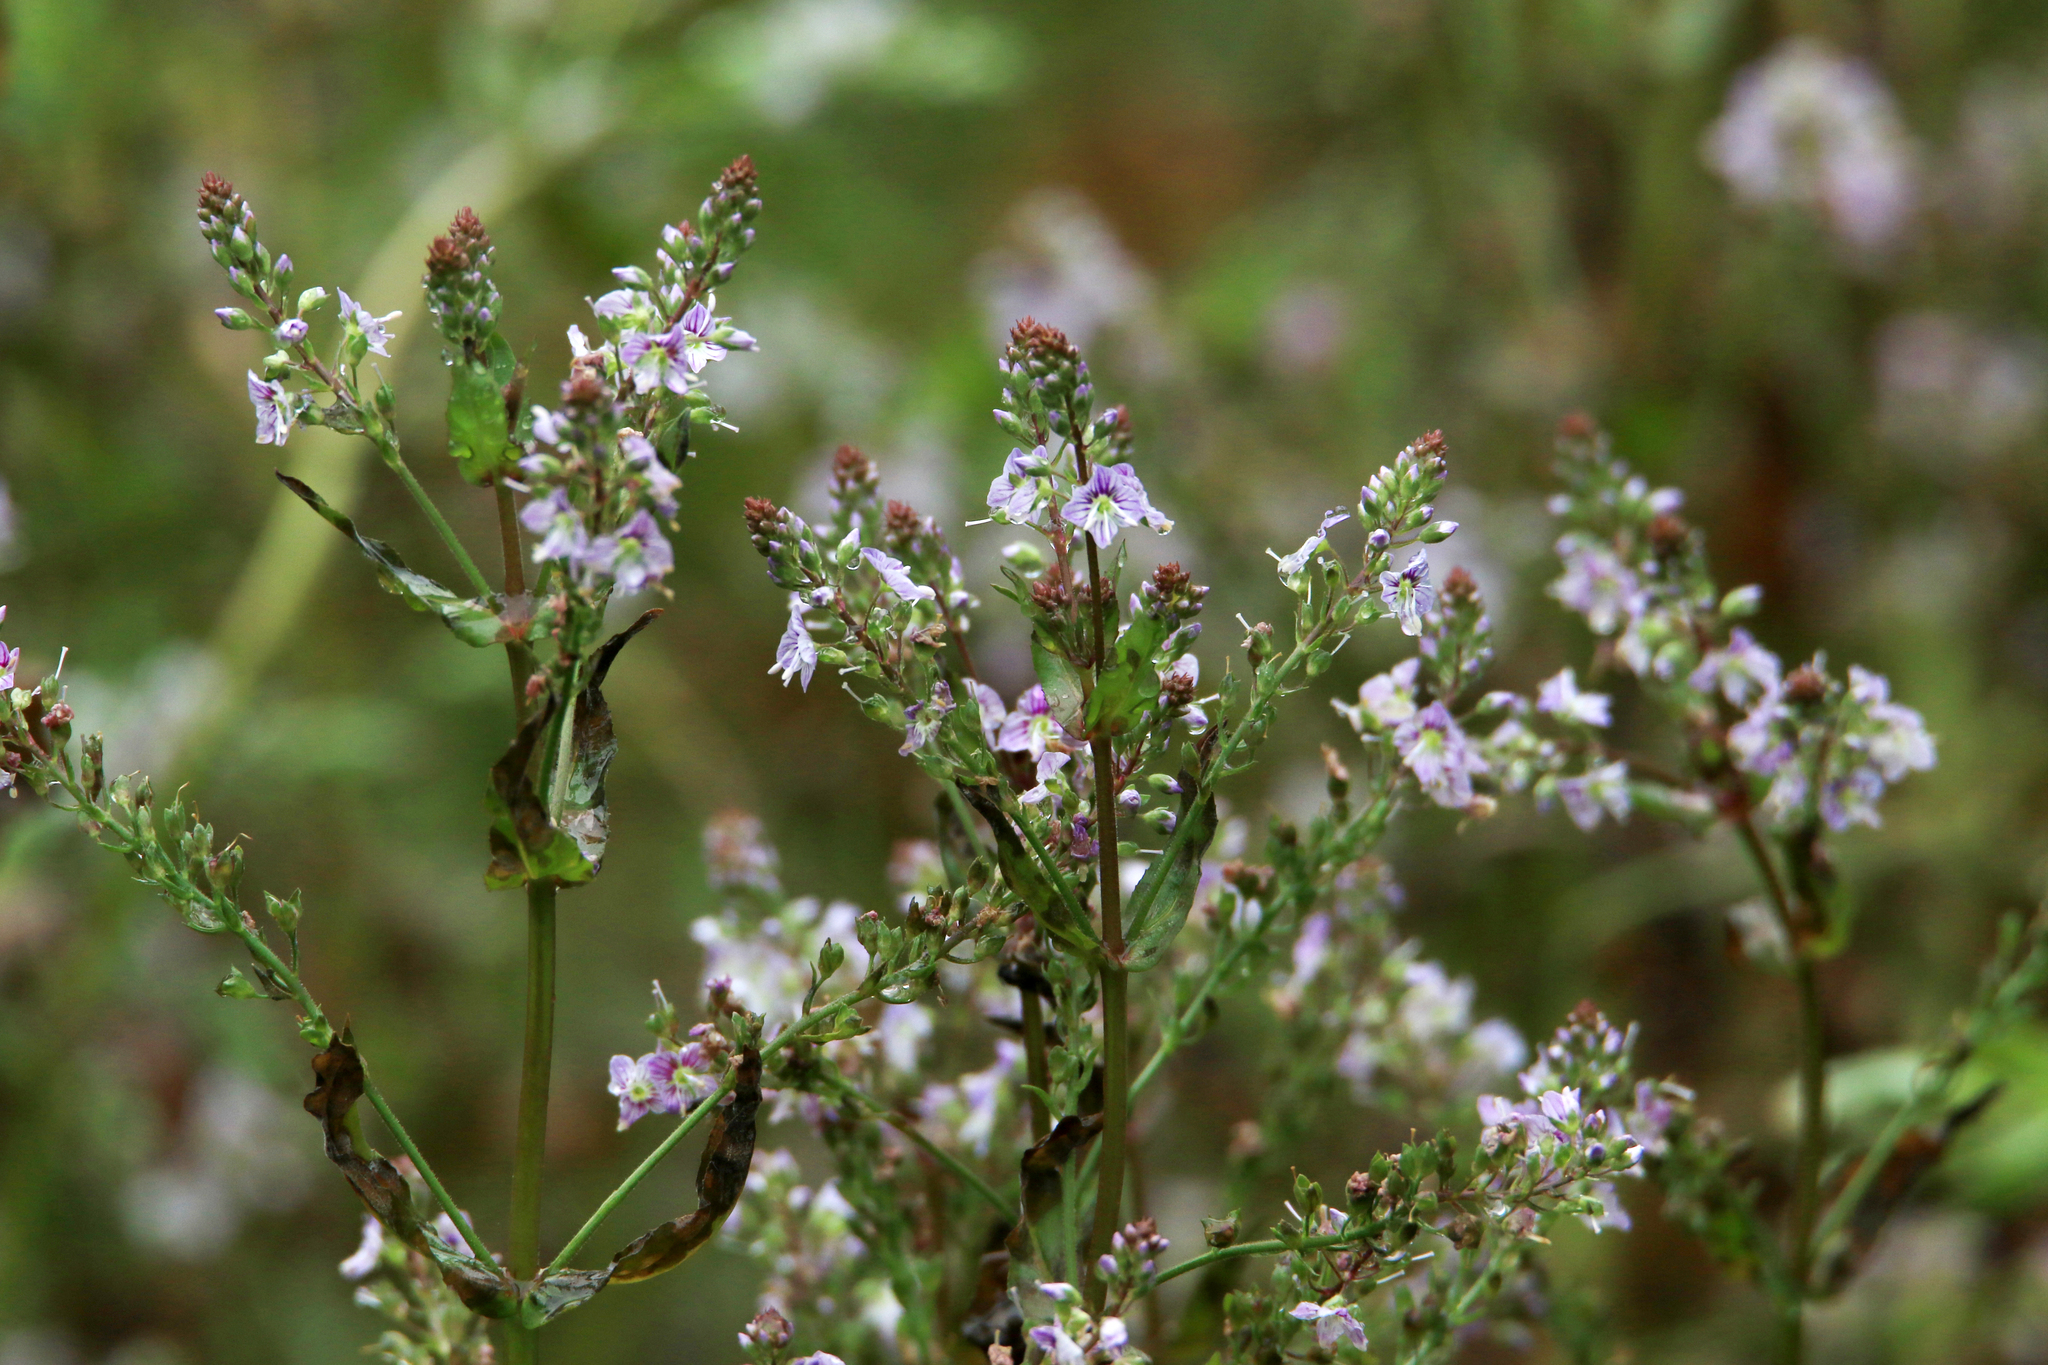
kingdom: Plantae
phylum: Tracheophyta
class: Magnoliopsida
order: Lamiales
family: Plantaginaceae
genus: Veronica
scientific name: Veronica anagallis-aquatica
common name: Water speedwell
